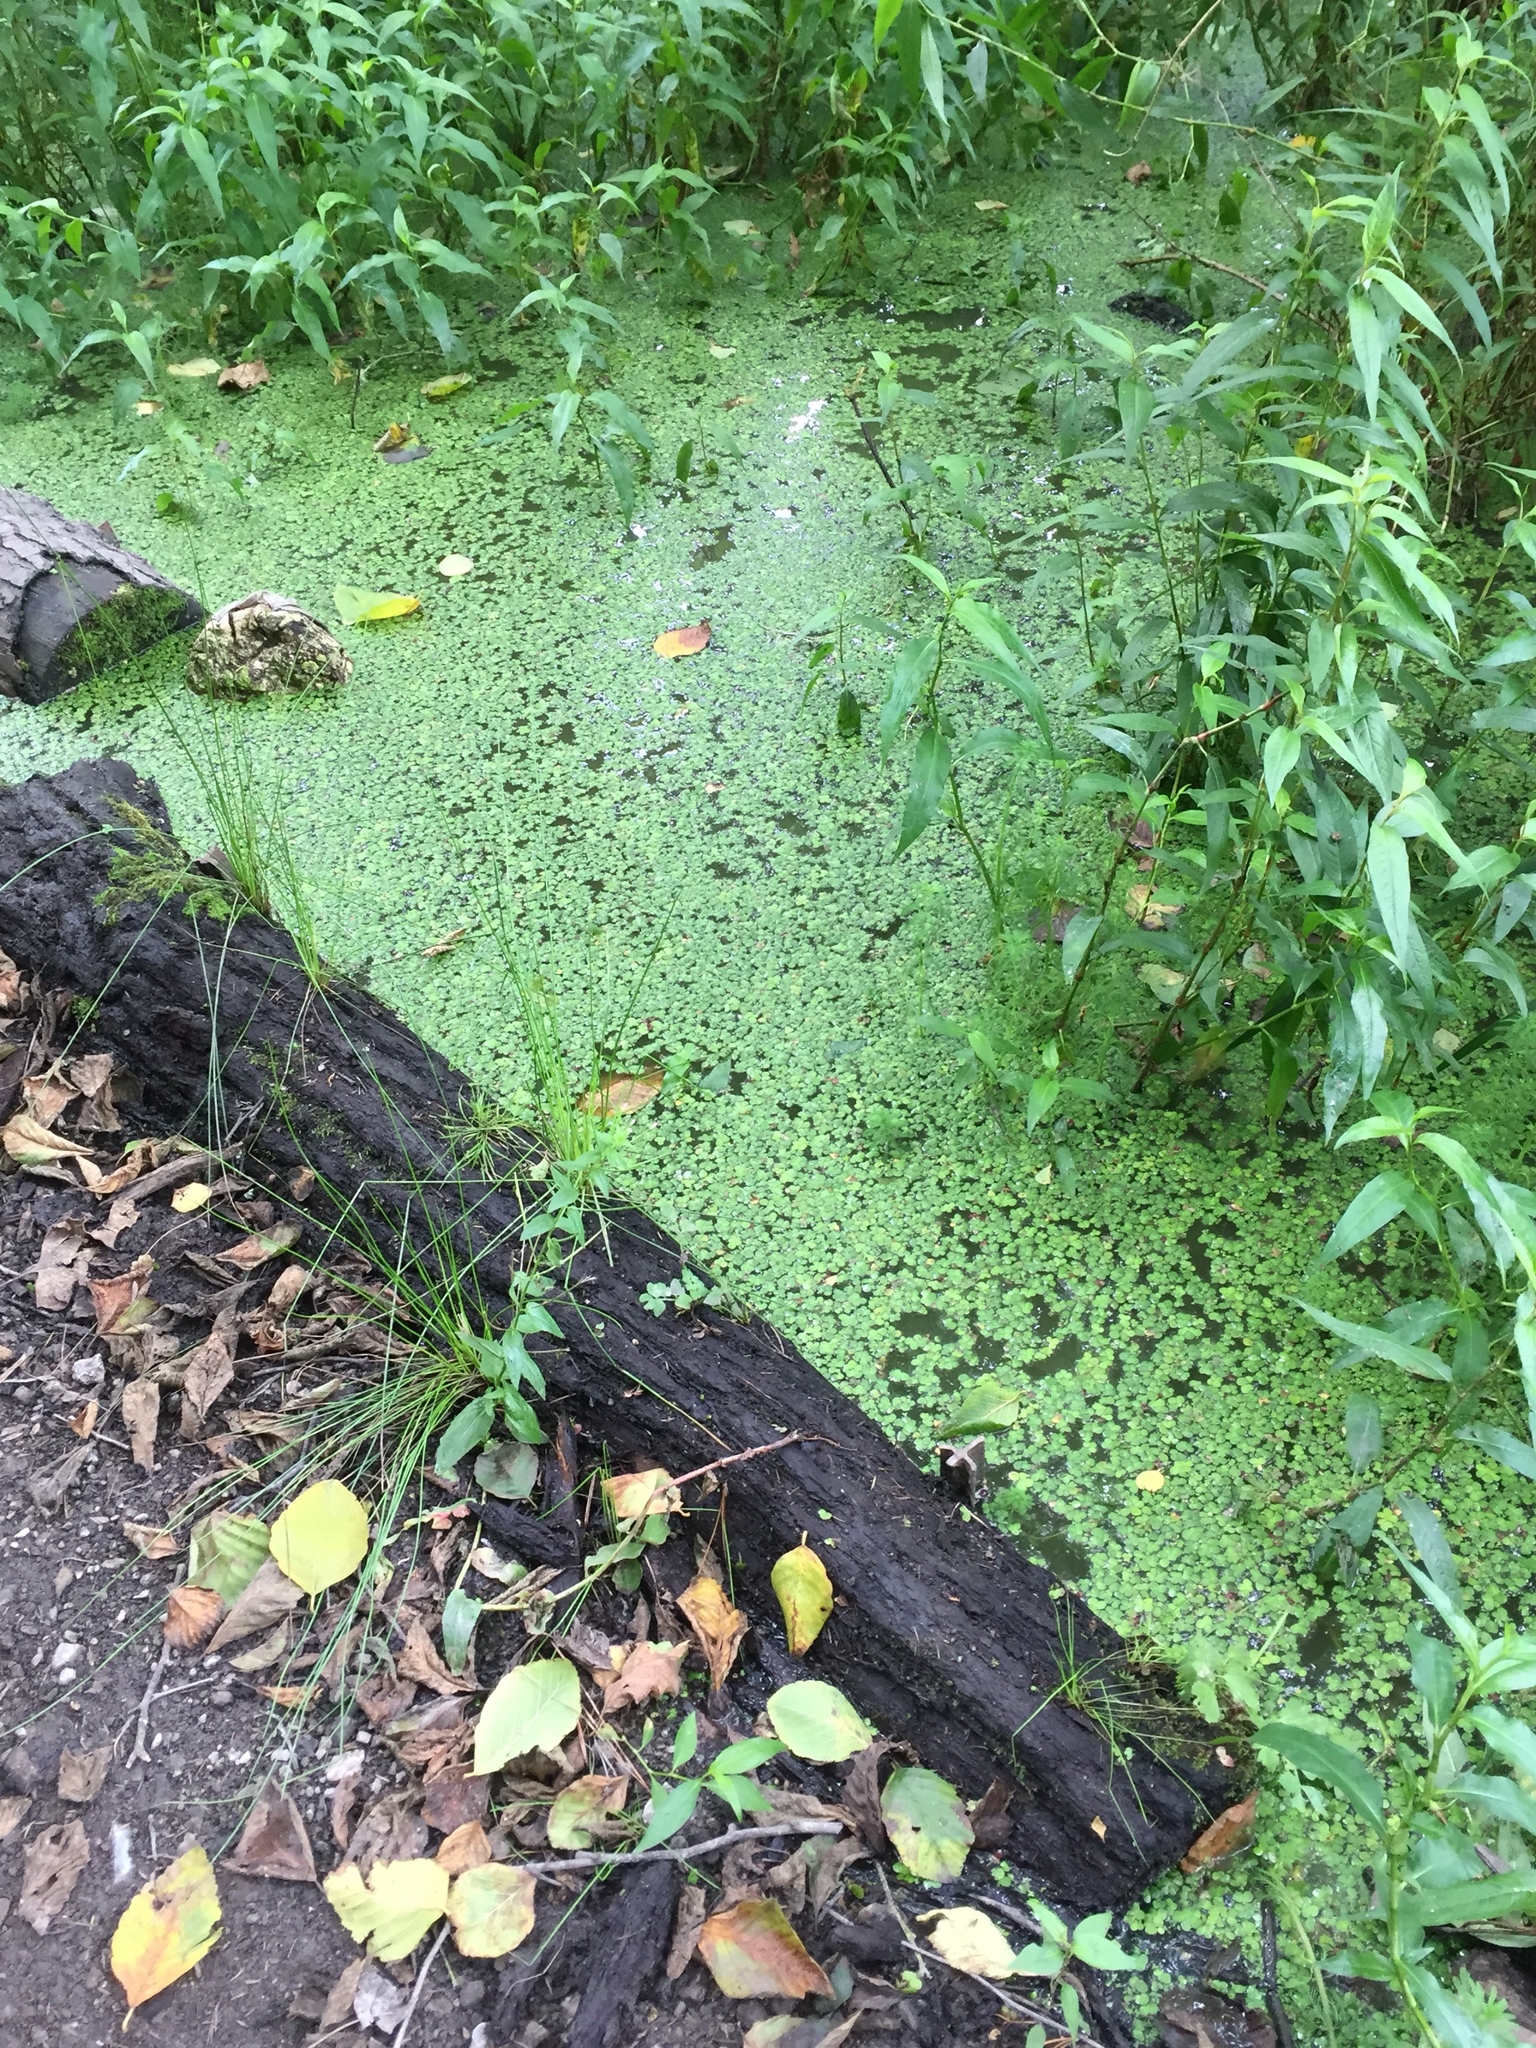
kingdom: Plantae
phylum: Tracheophyta
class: Liliopsida
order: Alismatales
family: Araceae
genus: Spirodela
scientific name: Spirodela polyrhiza
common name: Great duckweed
